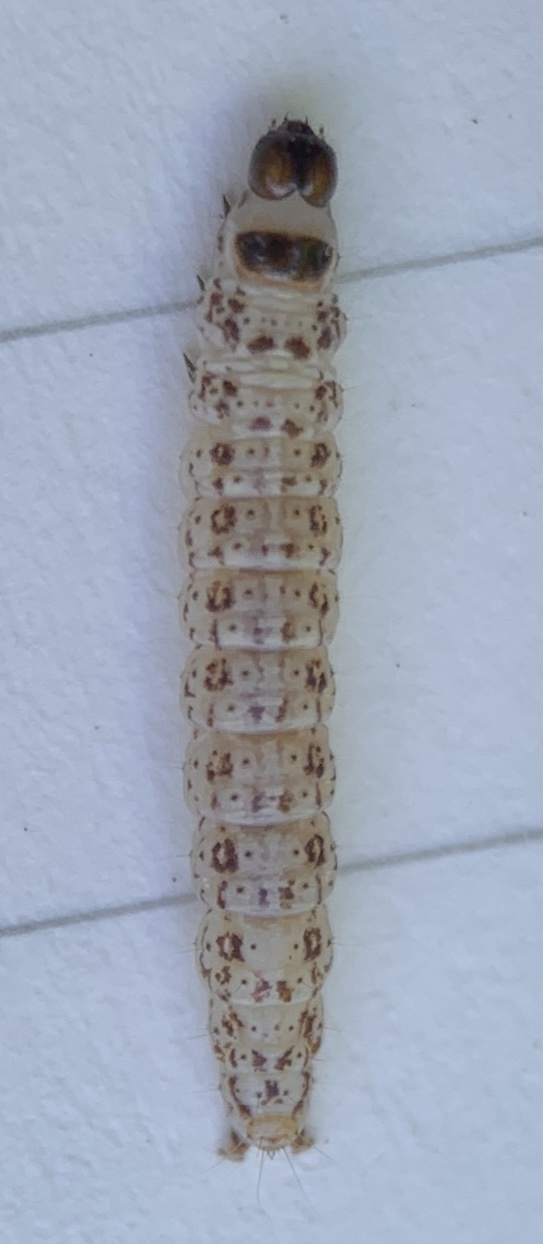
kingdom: Animalia
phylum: Arthropoda
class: Insecta
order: Lepidoptera
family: Gelechiidae
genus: Chionodes
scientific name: Chionodes sevir
